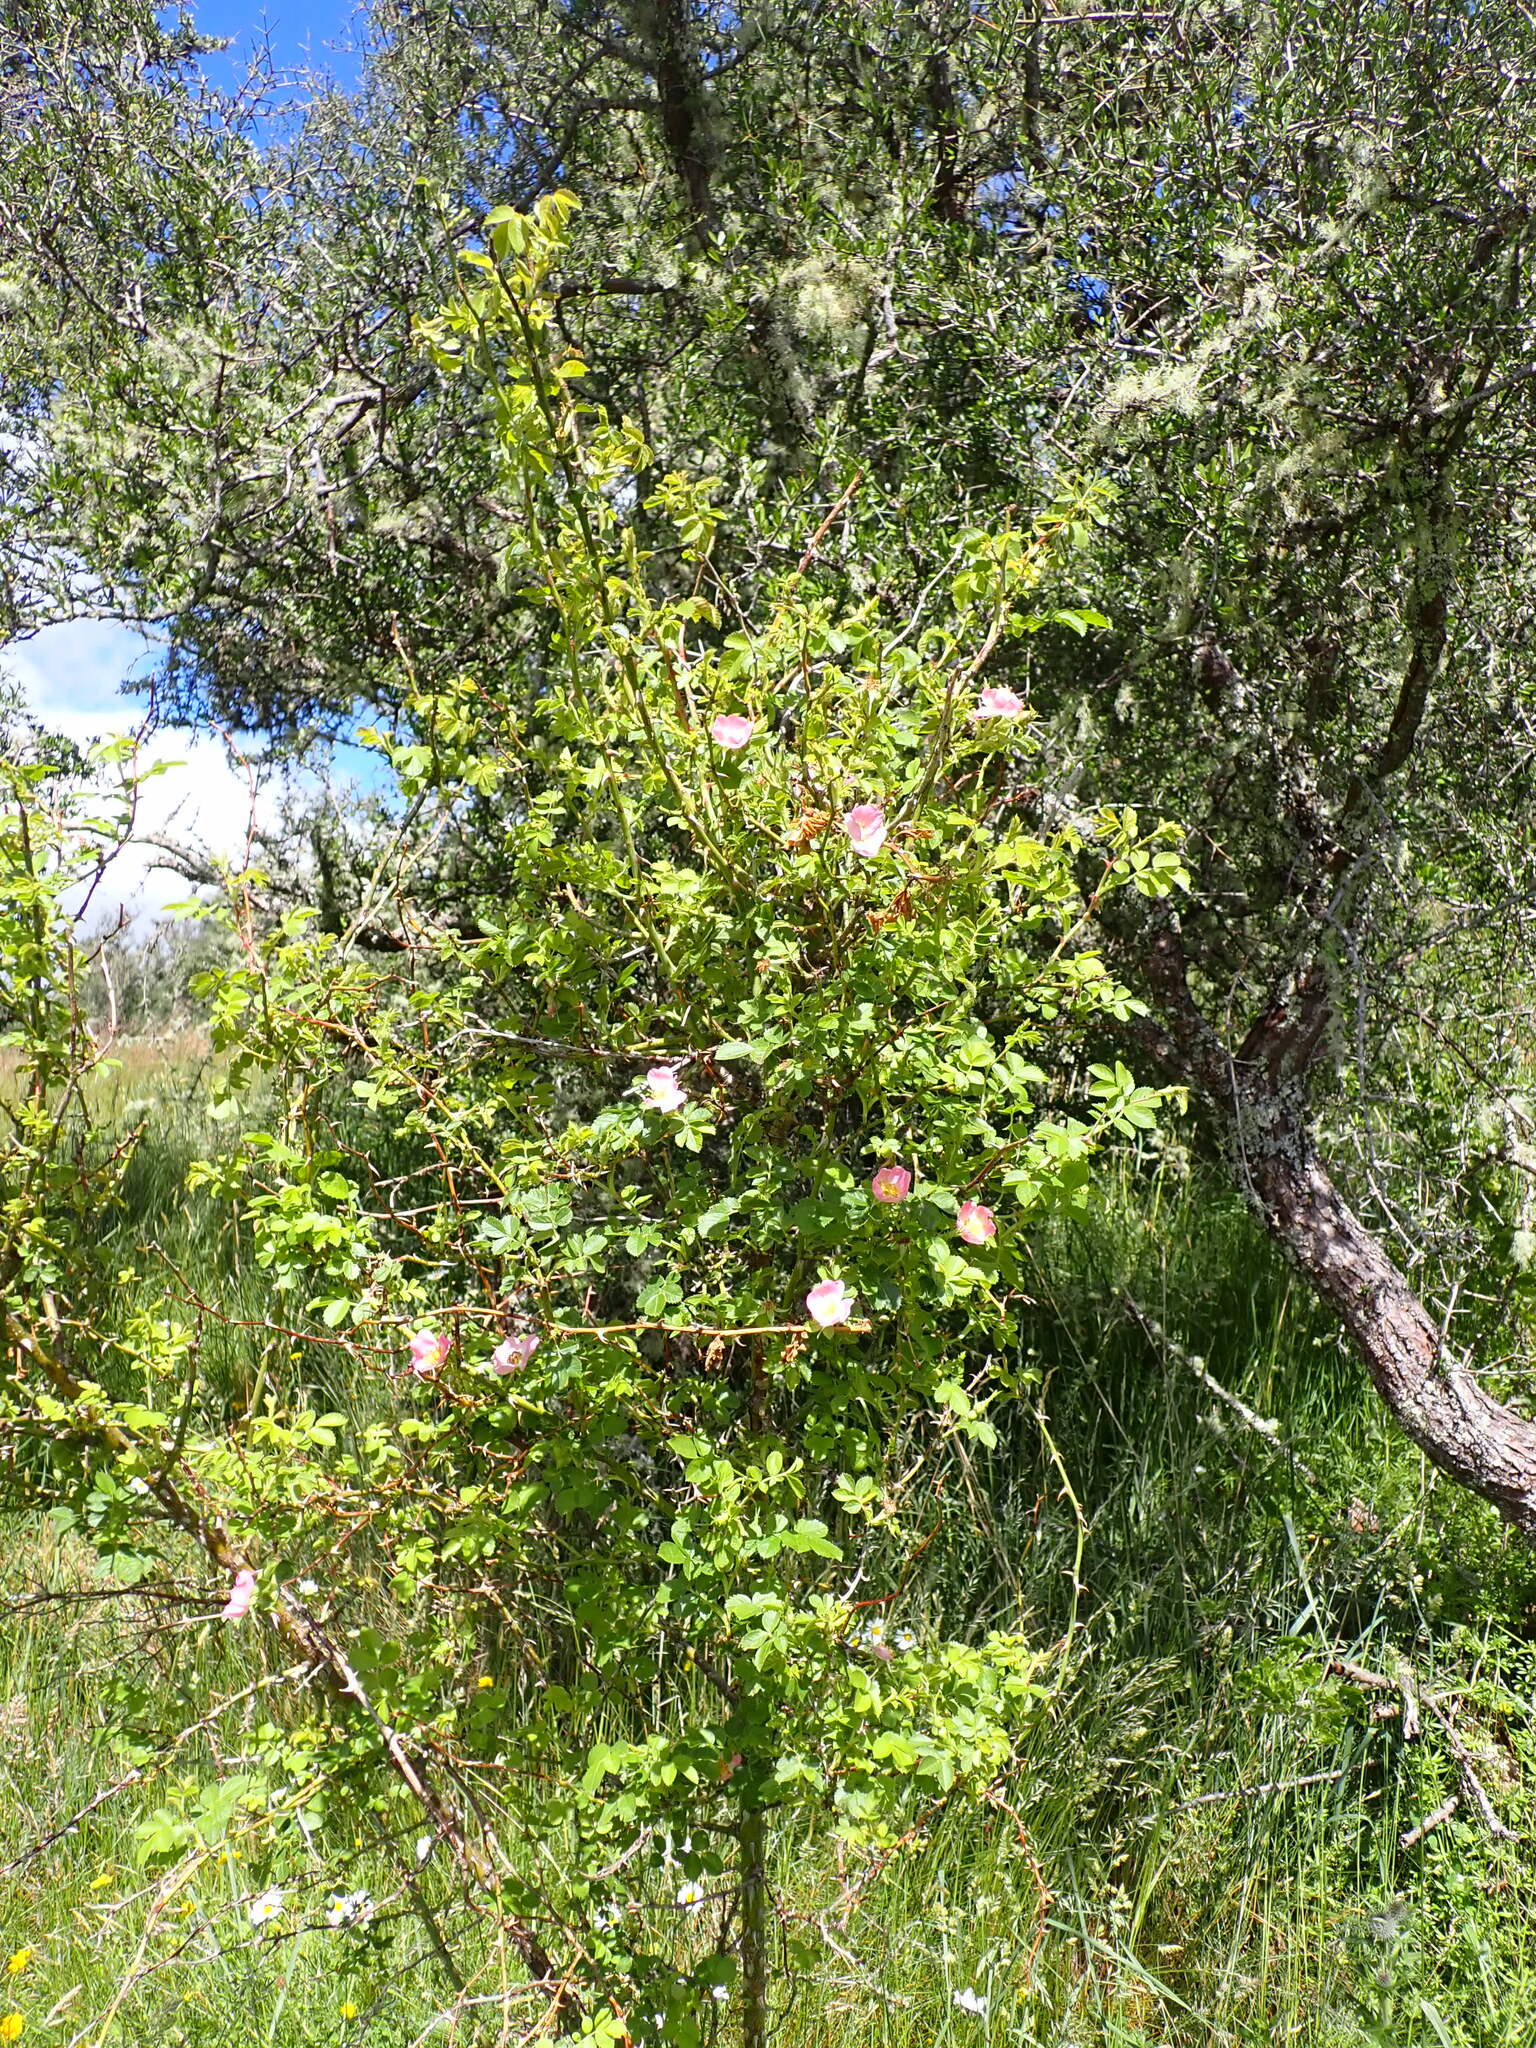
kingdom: Plantae
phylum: Tracheophyta
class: Magnoliopsida
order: Rosales
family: Rosaceae
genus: Rosa
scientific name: Rosa rubiginosa
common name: Sweet-briar
